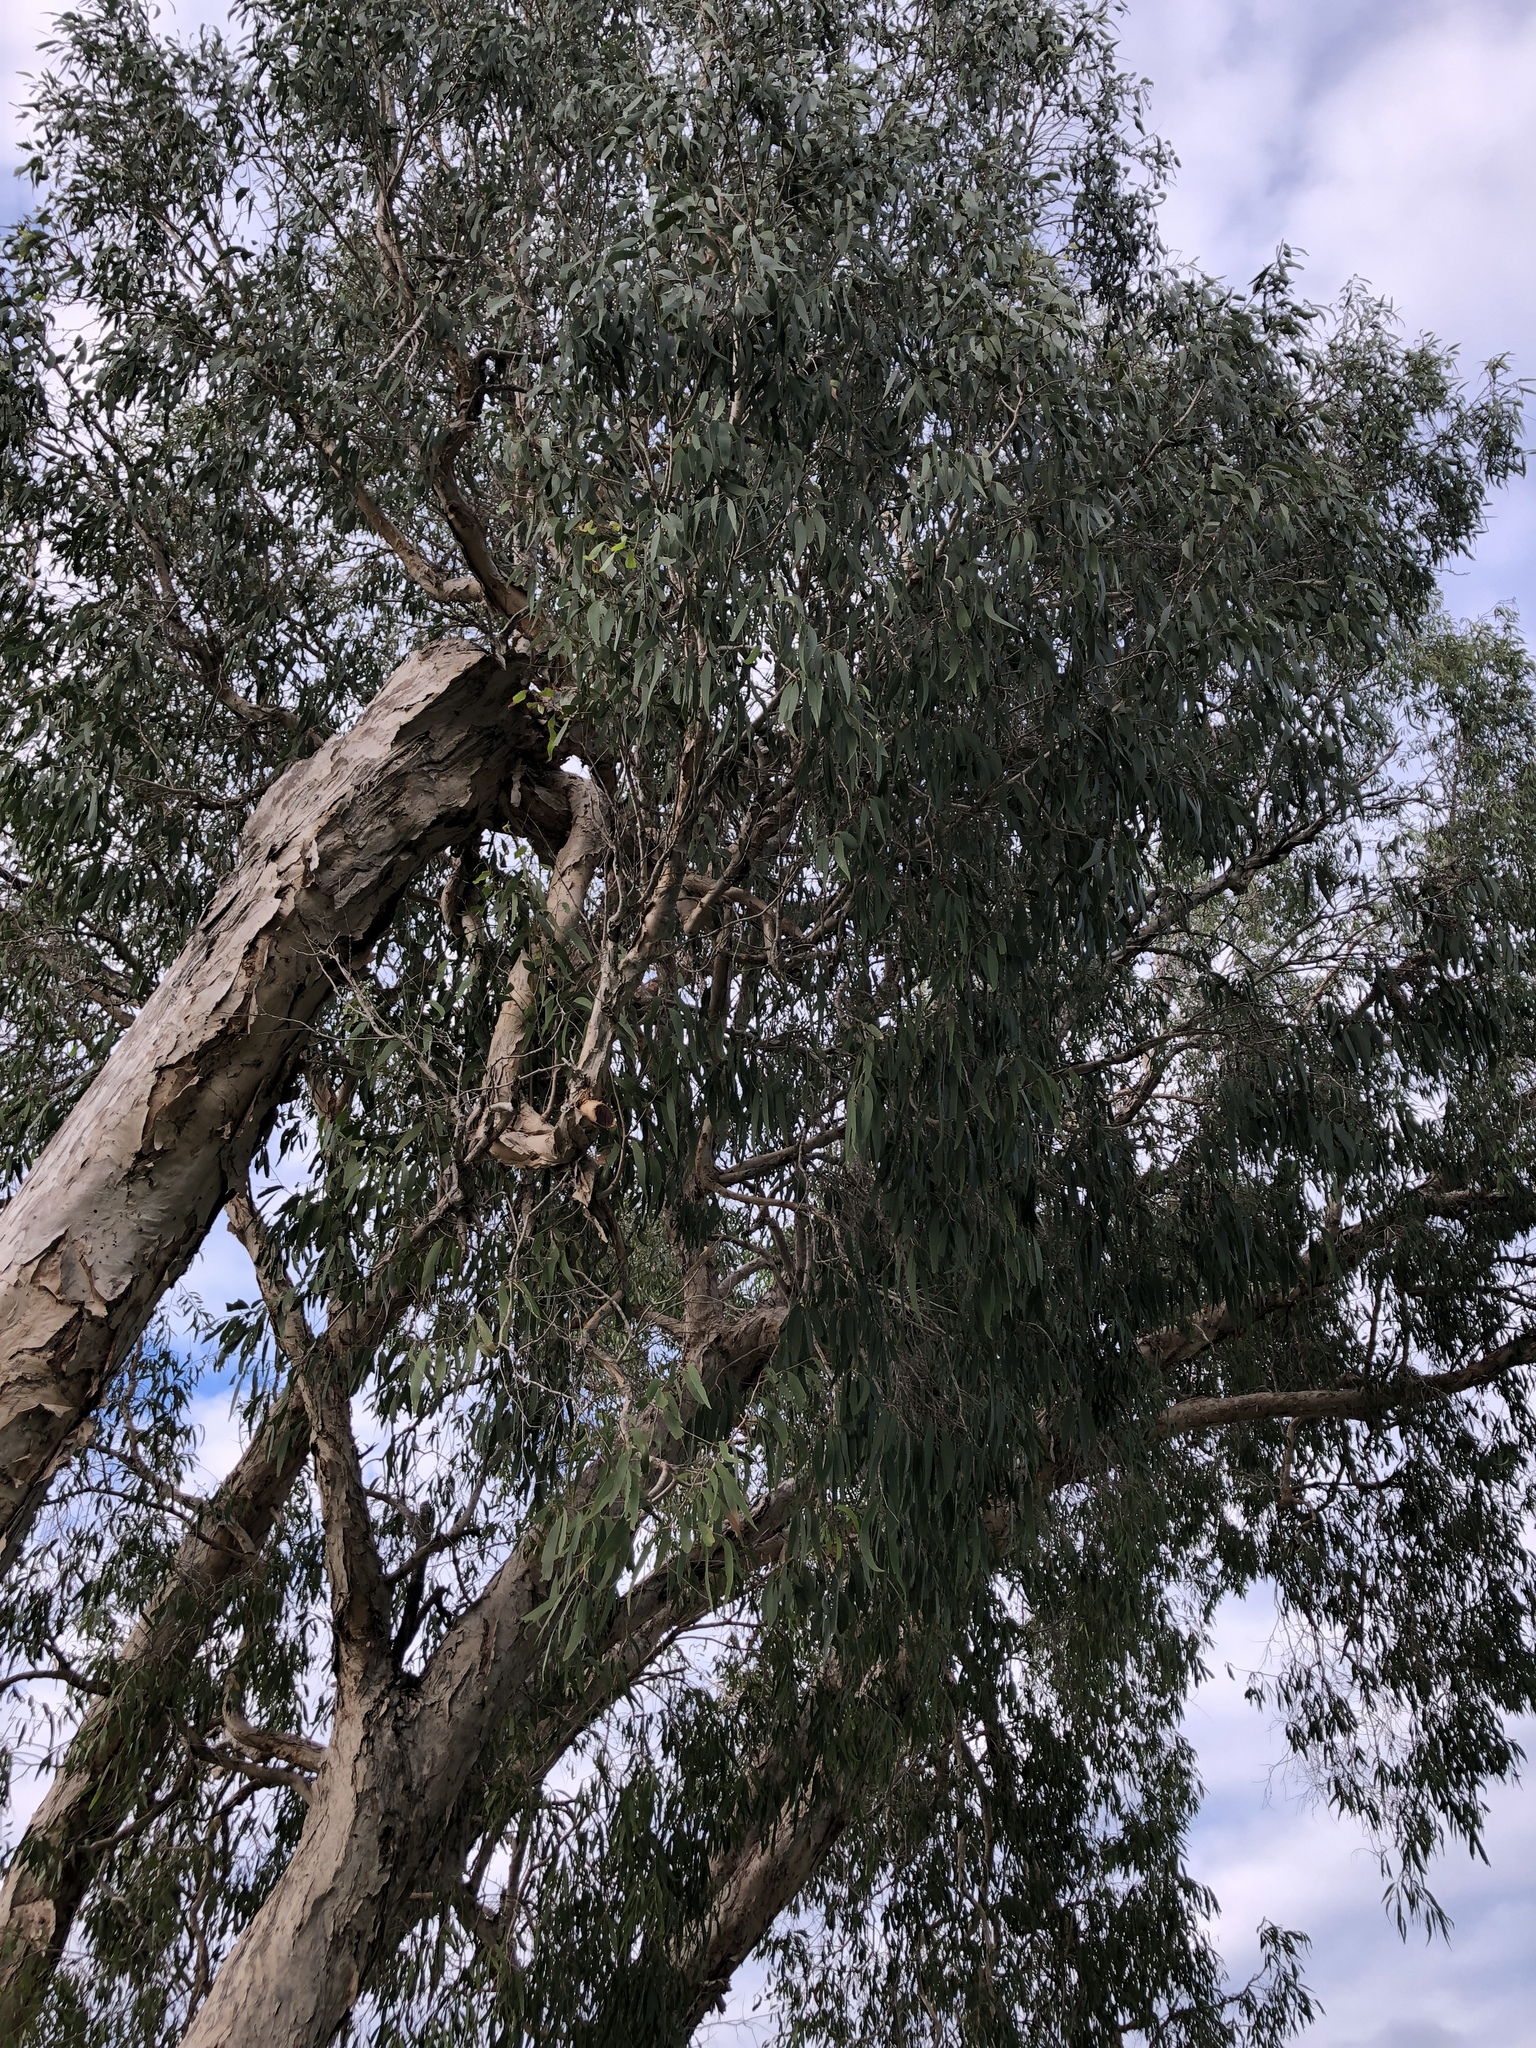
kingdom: Plantae
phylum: Tracheophyta
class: Magnoliopsida
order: Myrtales
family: Myrtaceae
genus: Melaleuca
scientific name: Melaleuca leucadendra
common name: Weeping paperbark
